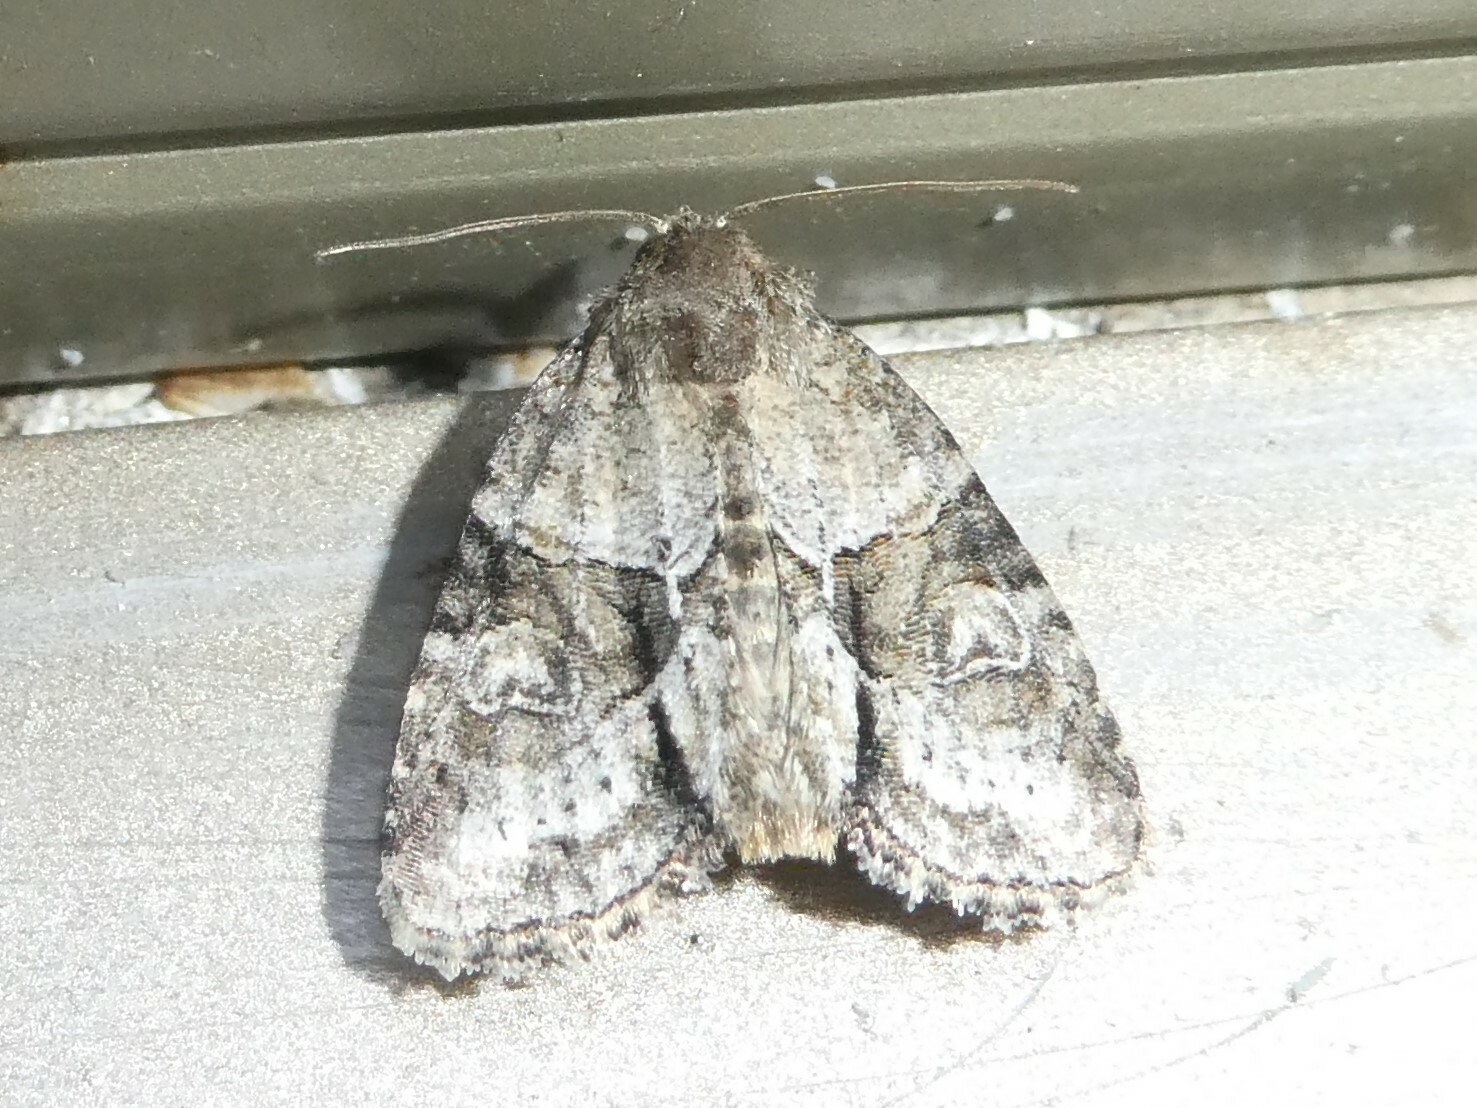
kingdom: Animalia
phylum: Arthropoda
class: Insecta
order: Lepidoptera
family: Noctuidae
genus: Neoligia
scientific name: Neoligia exhausta
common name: Exhausted brocade
